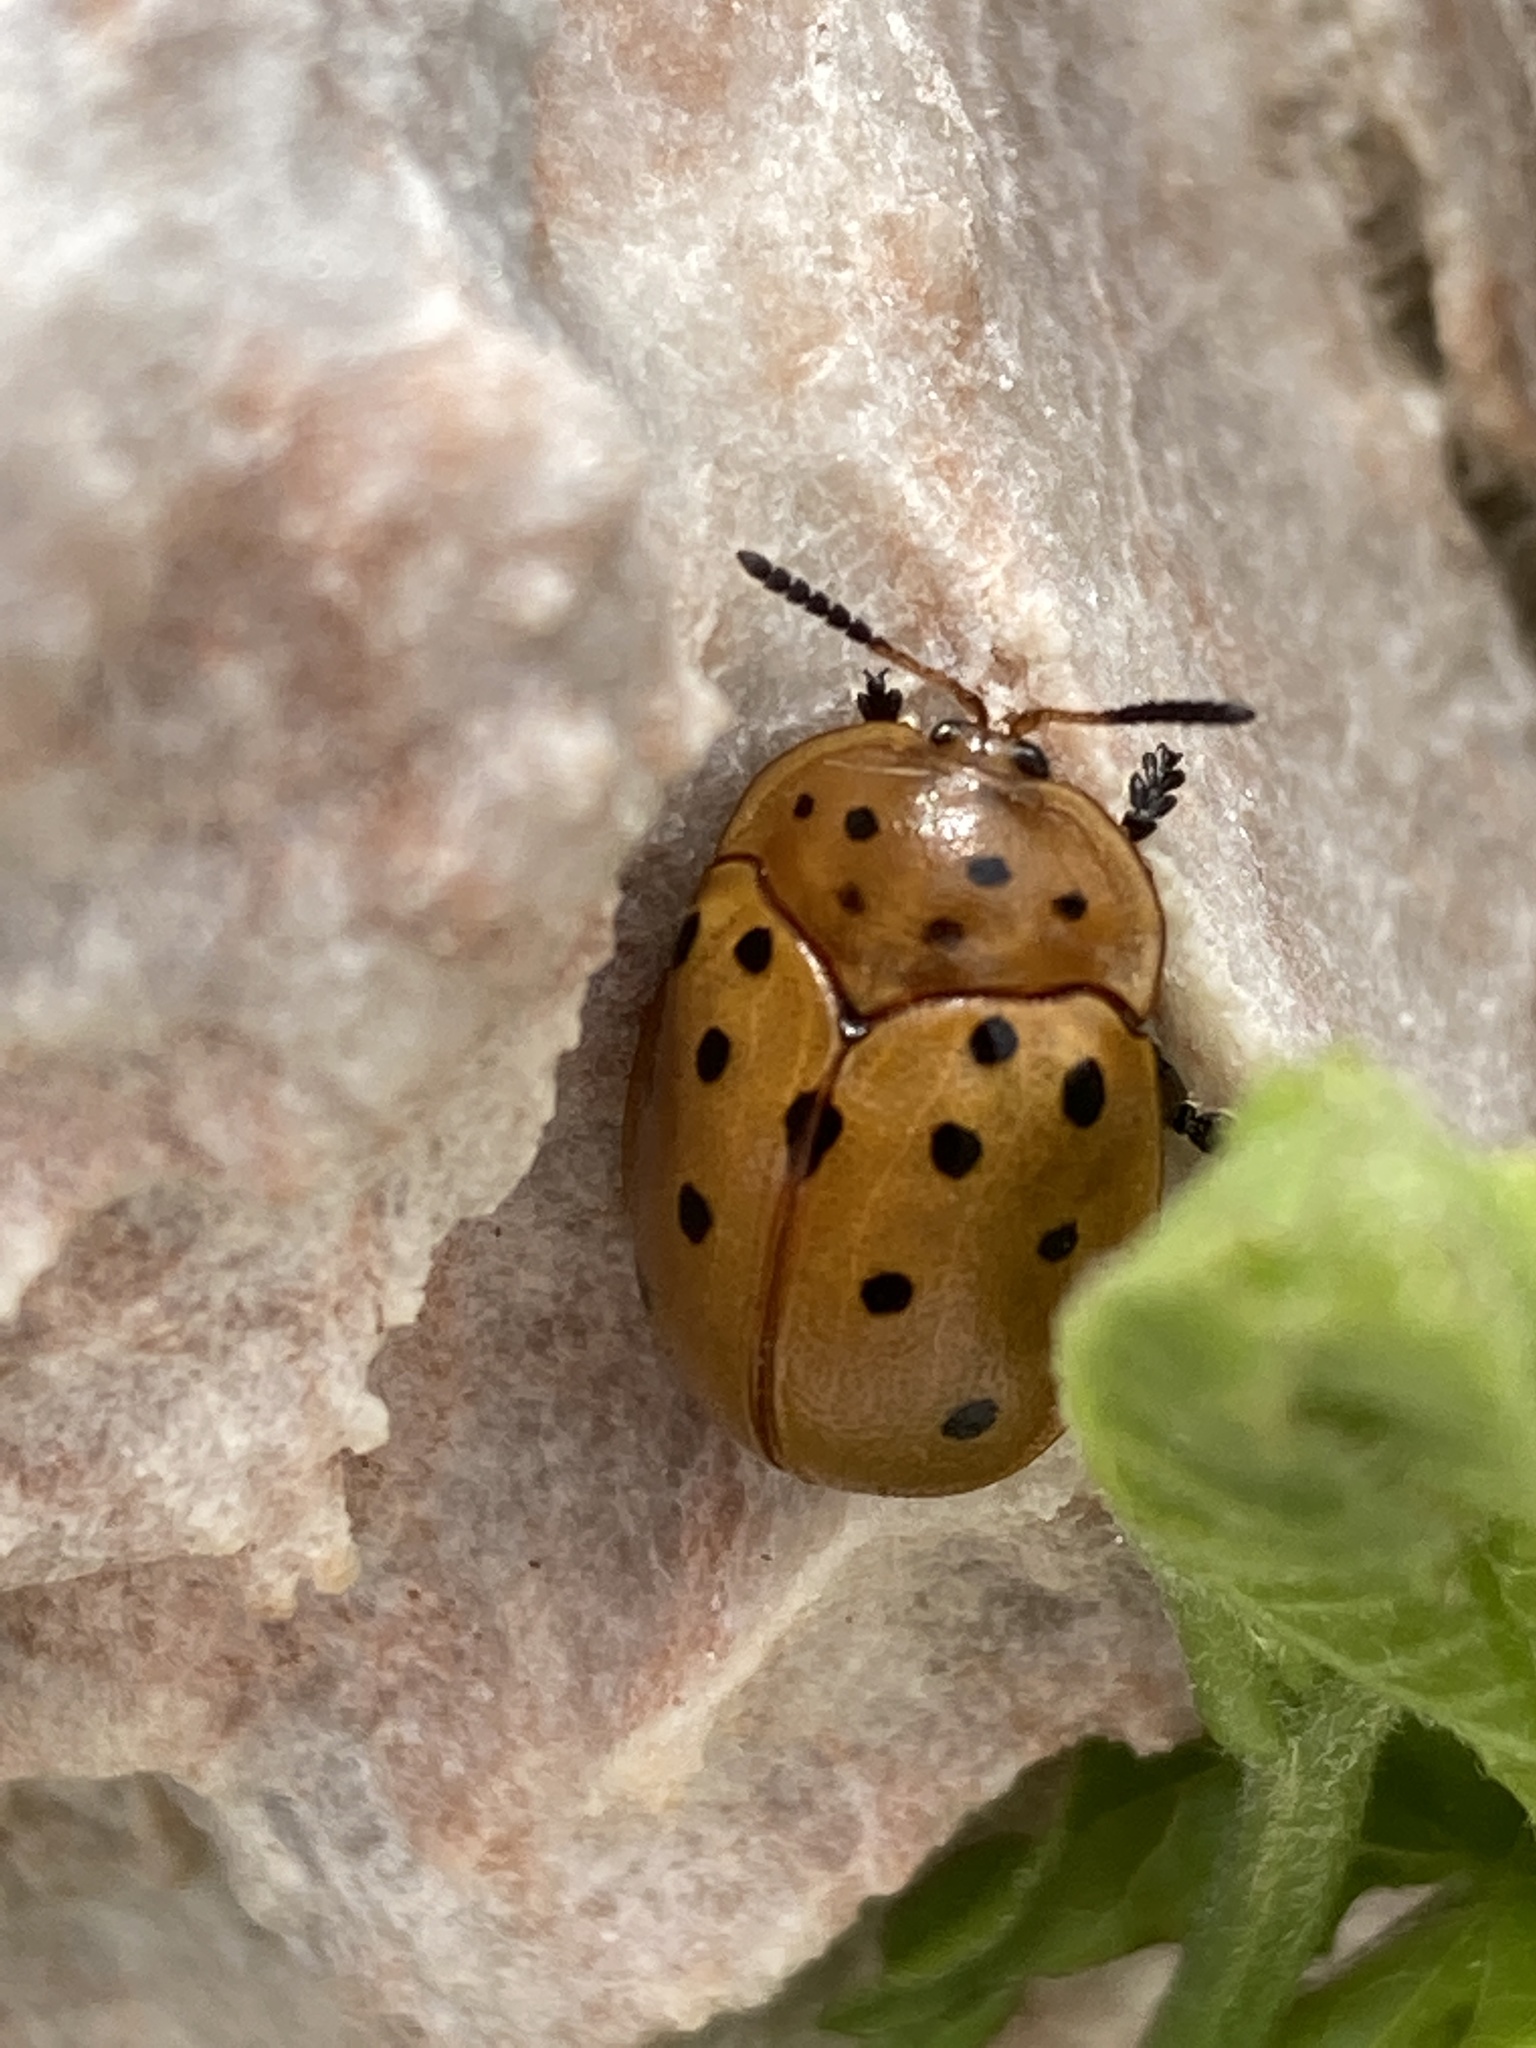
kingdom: Animalia
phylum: Arthropoda
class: Insecta
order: Coleoptera
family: Chrysomelidae
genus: Chelymorpha
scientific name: Chelymorpha cassidea
